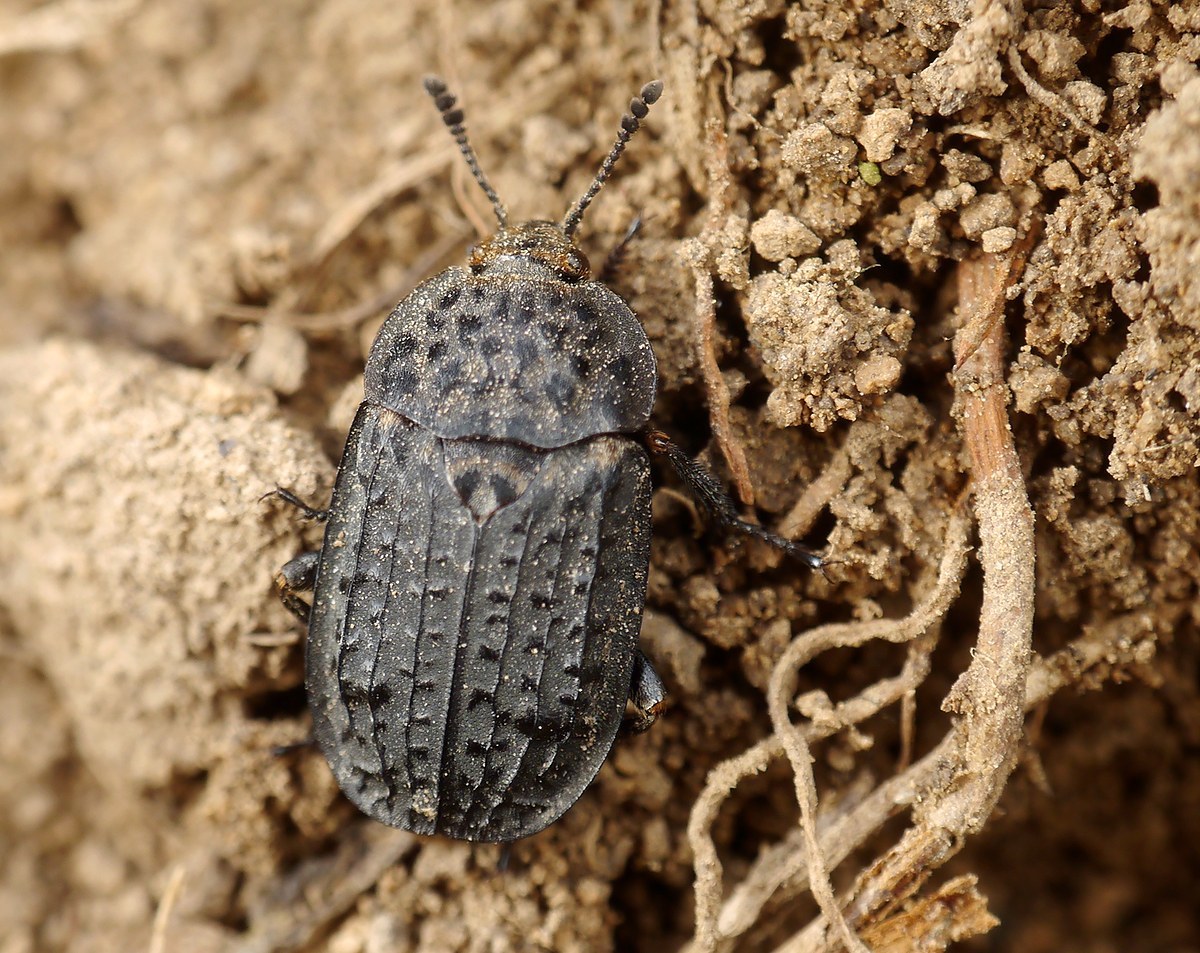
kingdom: Animalia
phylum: Arthropoda
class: Insecta
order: Coleoptera
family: Staphylinidae
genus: Thanatophilus
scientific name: Thanatophilus rugosus
